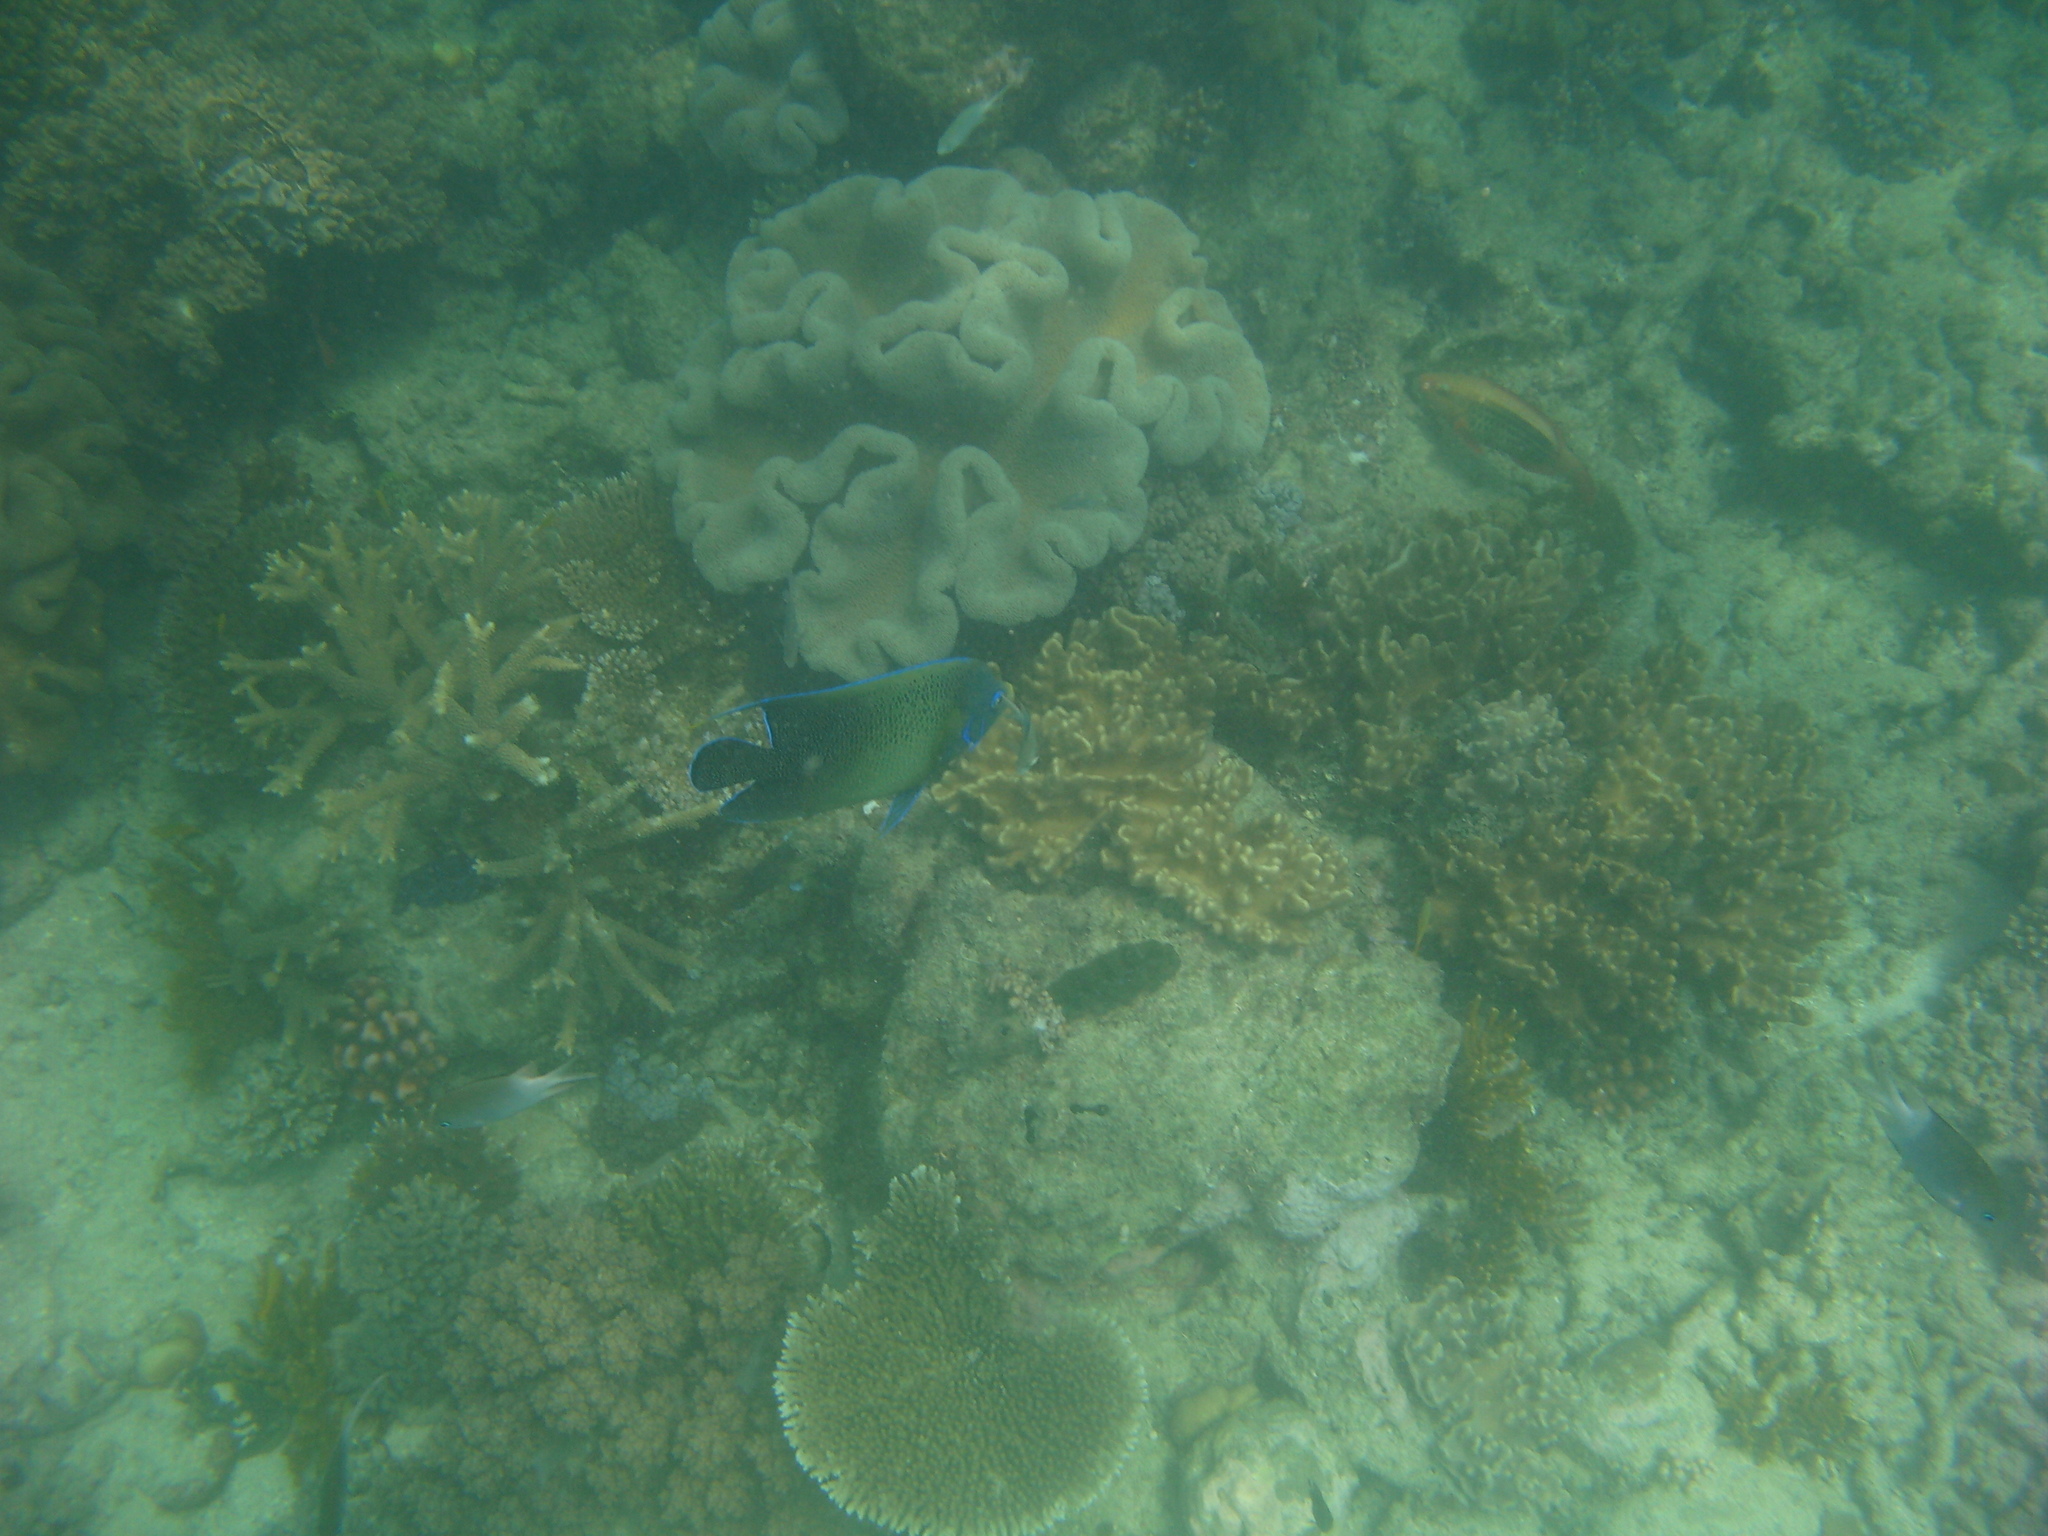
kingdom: Animalia
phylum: Chordata
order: Perciformes
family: Pomacanthidae
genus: Pomacanthus
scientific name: Pomacanthus semicirculatus
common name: Semicircle angelfish
